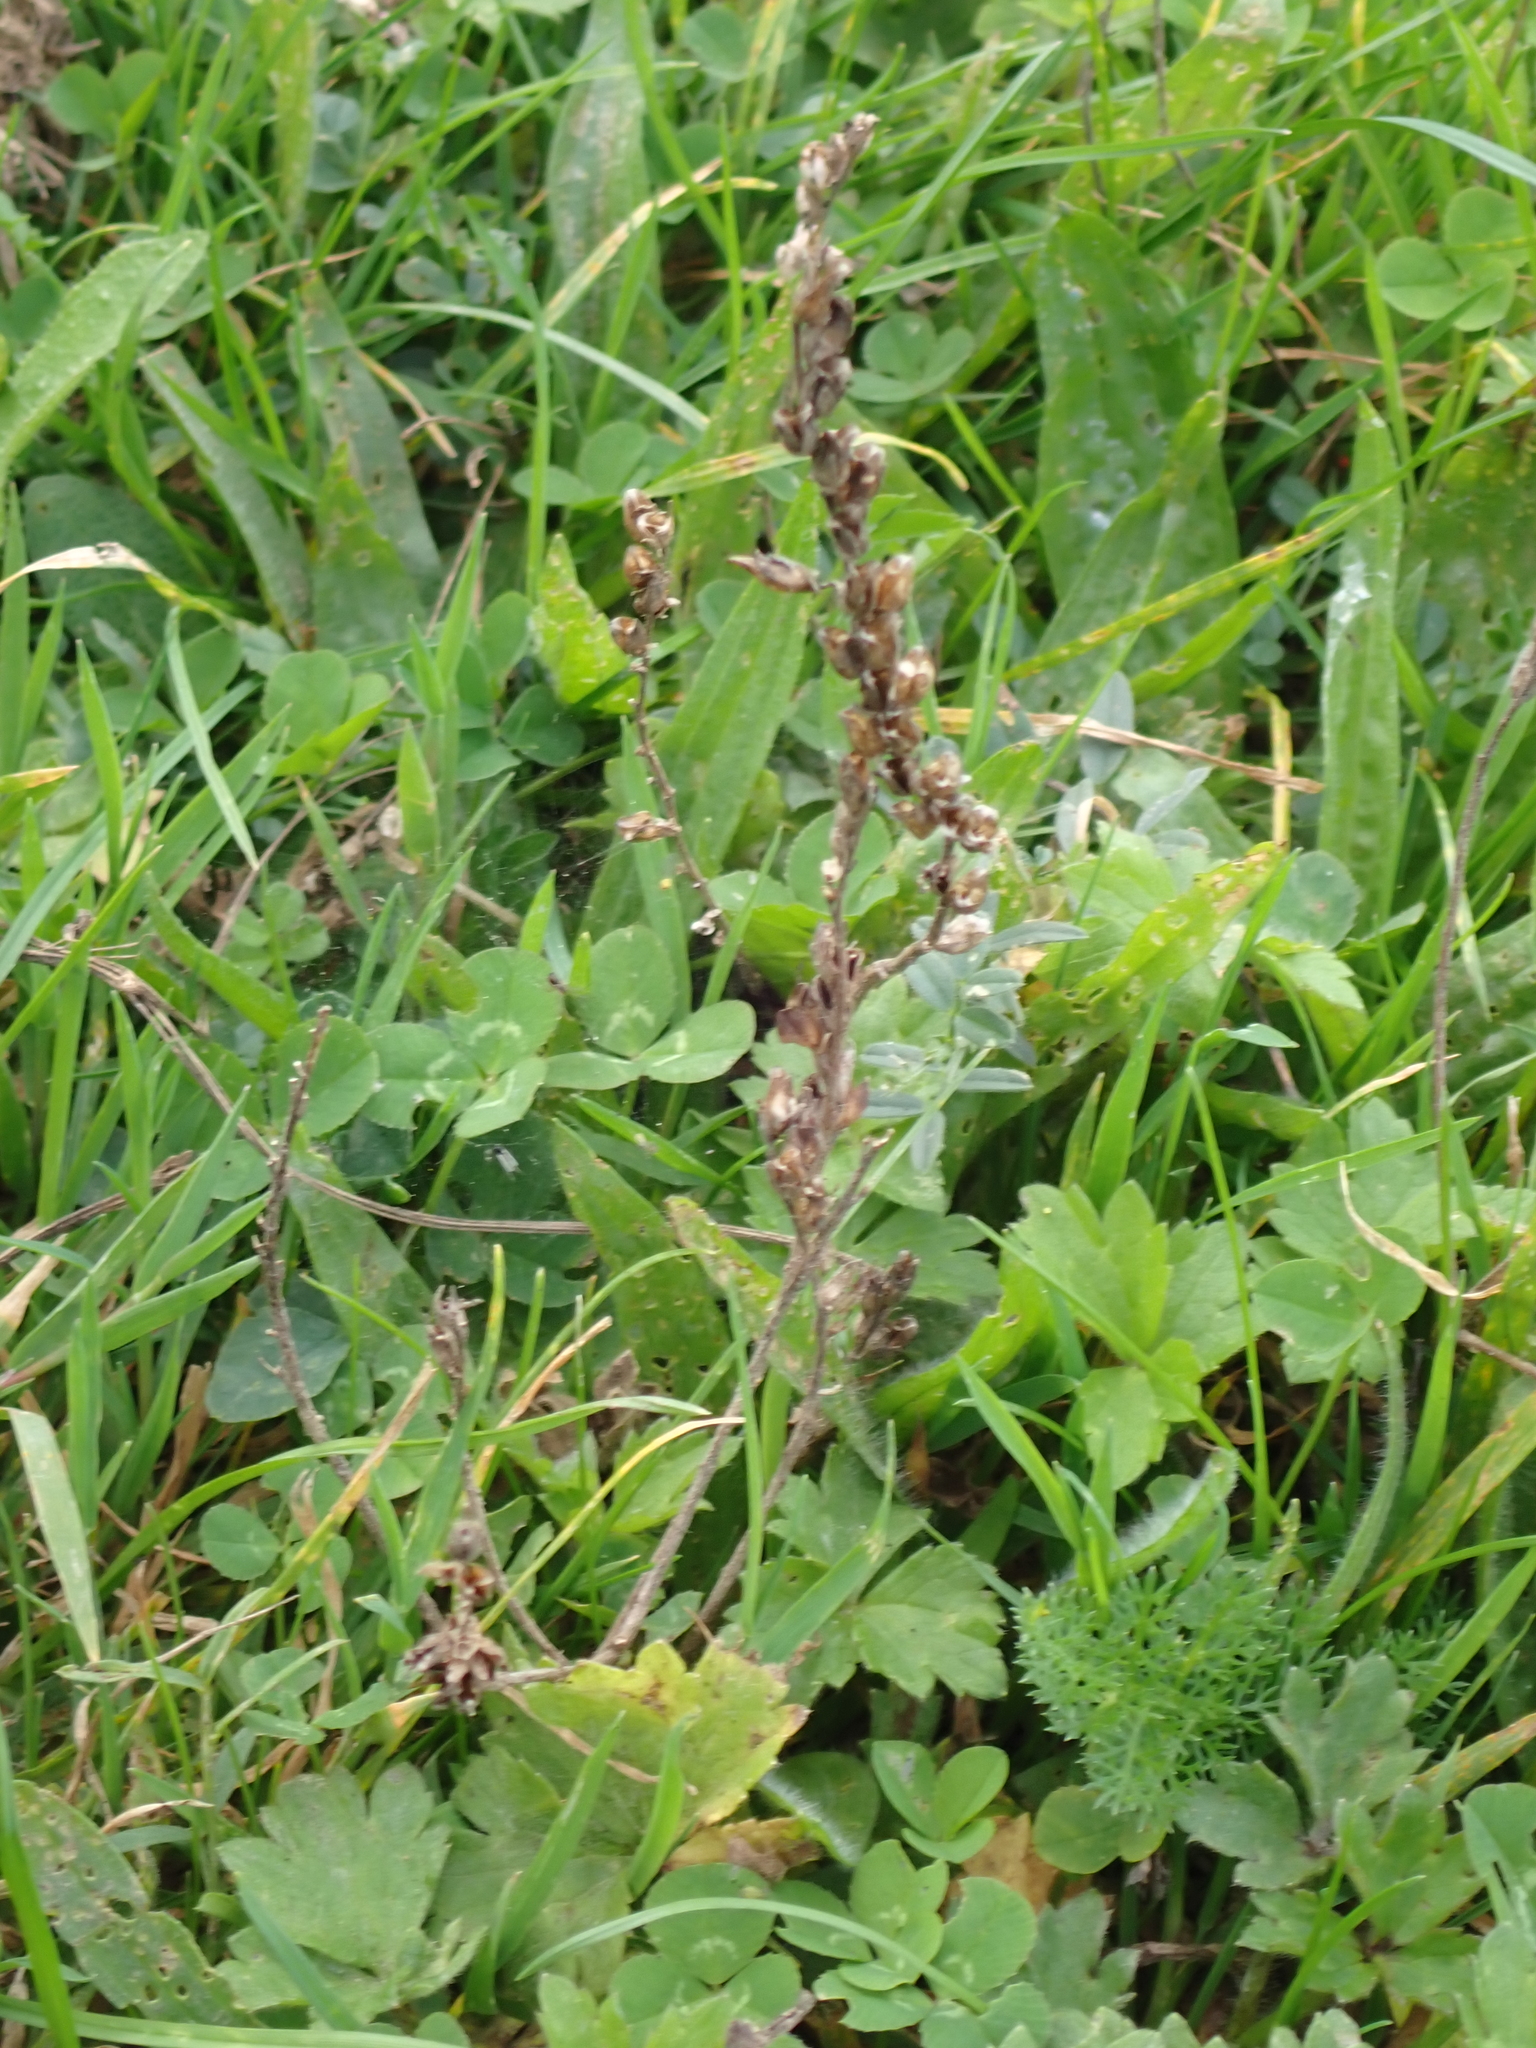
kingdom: Plantae
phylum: Tracheophyta
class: Magnoliopsida
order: Lamiales
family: Orobanchaceae
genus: Odontites
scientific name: Odontites vulgaris
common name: Broomrape
